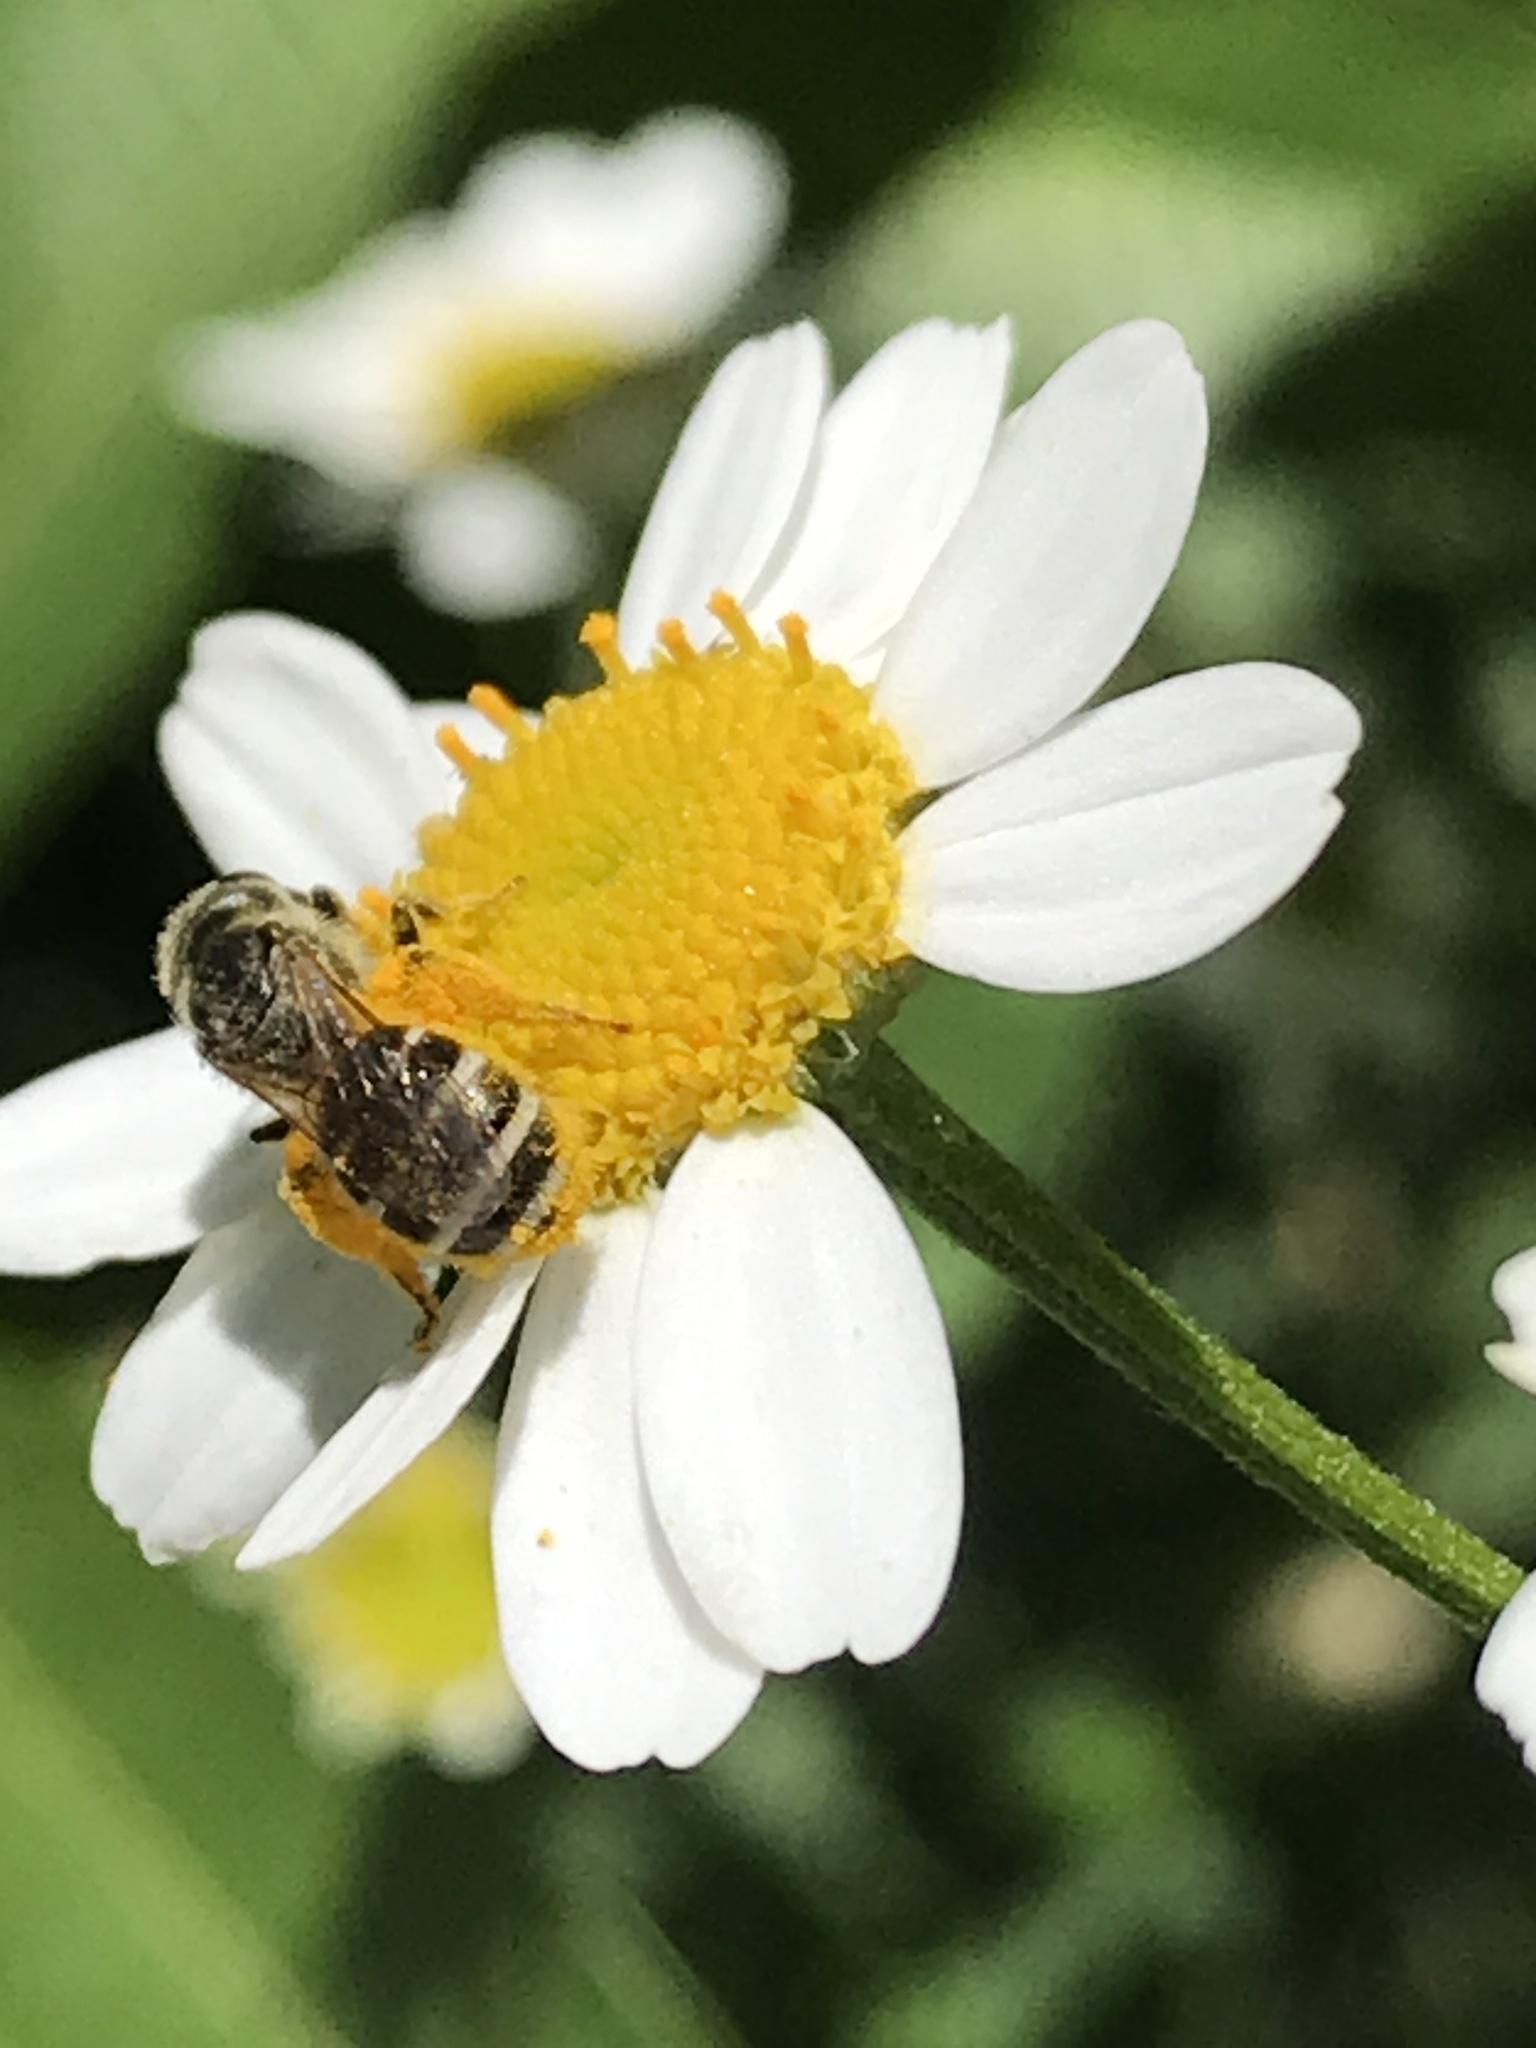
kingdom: Animalia
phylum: Arthropoda
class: Insecta
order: Hymenoptera
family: Halictidae
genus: Halictus
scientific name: Halictus tripartitus
